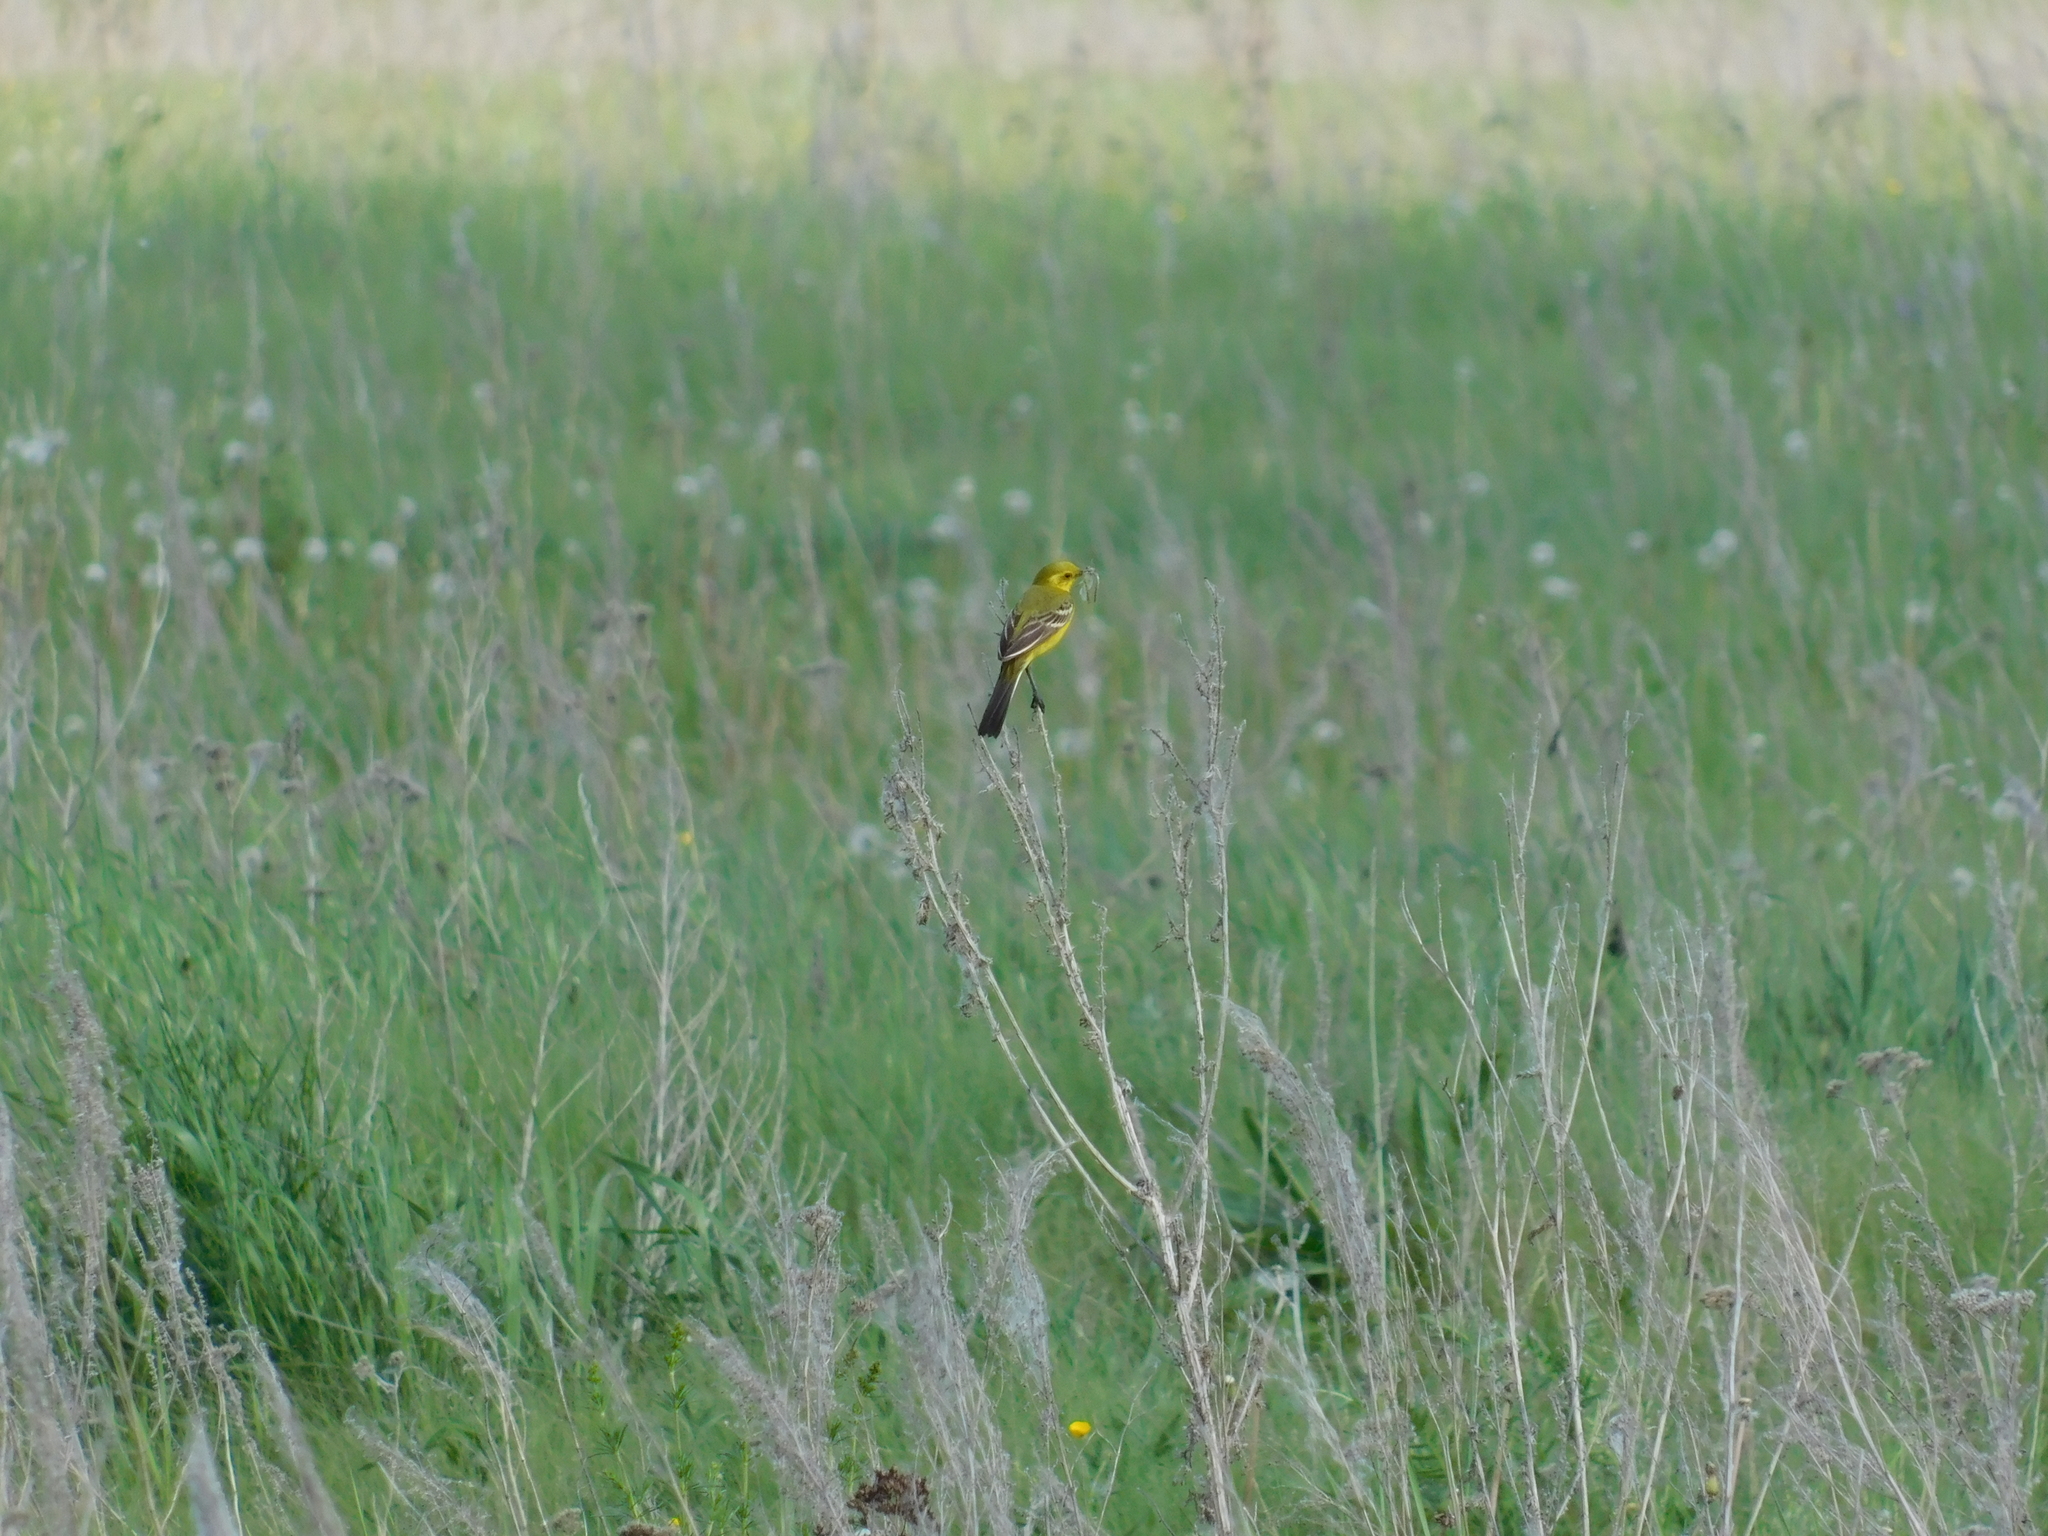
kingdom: Animalia
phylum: Chordata
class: Aves
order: Passeriformes
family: Motacillidae
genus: Motacilla
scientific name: Motacilla flava
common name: Western yellow wagtail
